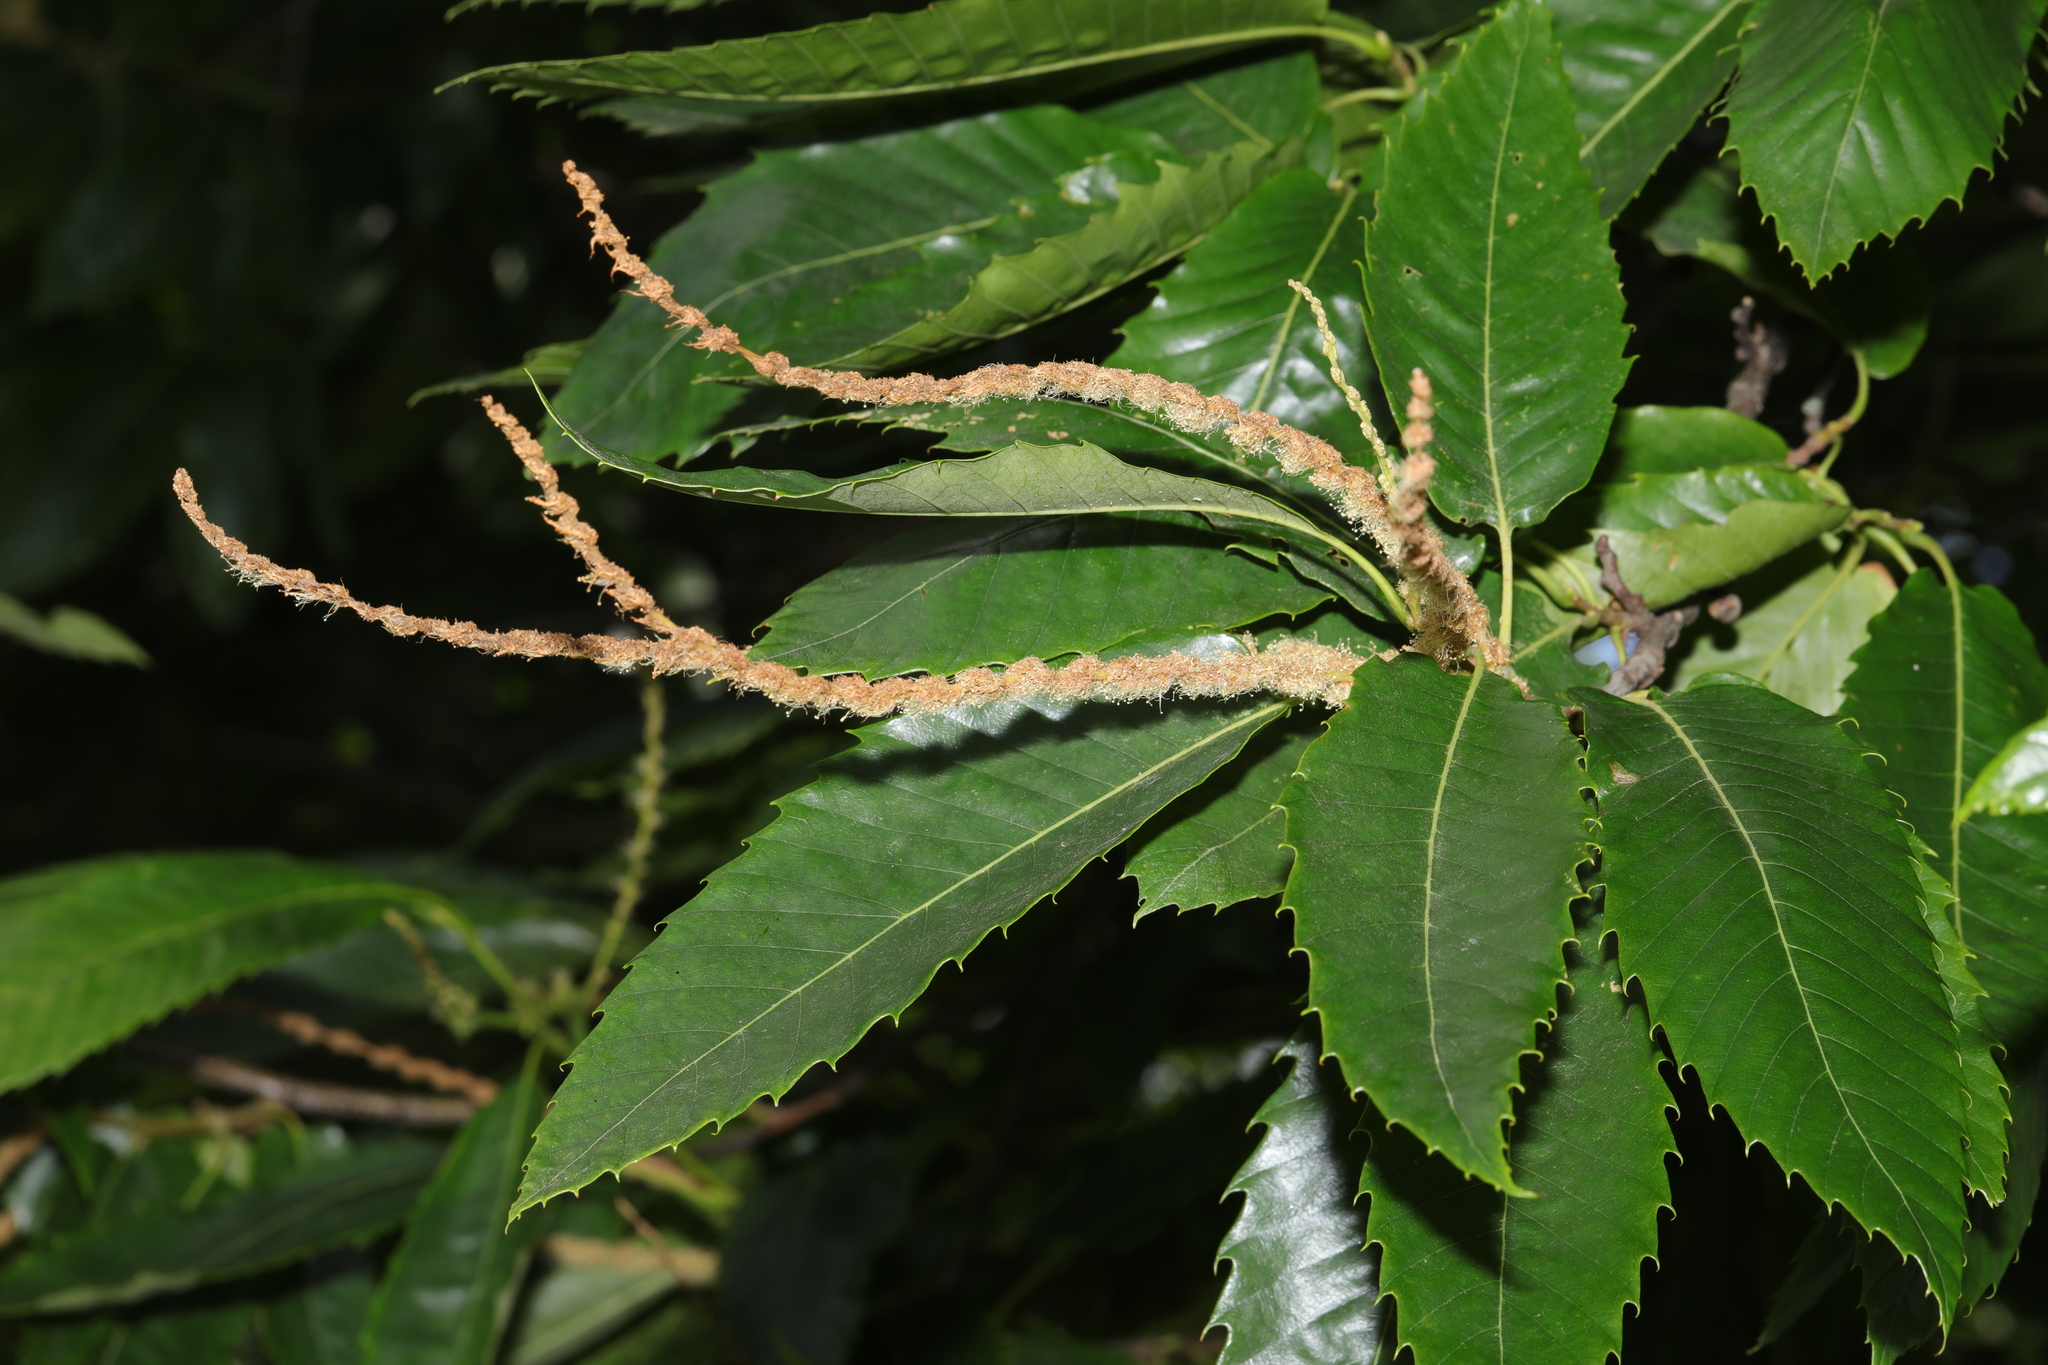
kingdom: Plantae
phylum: Tracheophyta
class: Magnoliopsida
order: Fagales
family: Fagaceae
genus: Castanea
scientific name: Castanea sativa
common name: Sweet chestnut
